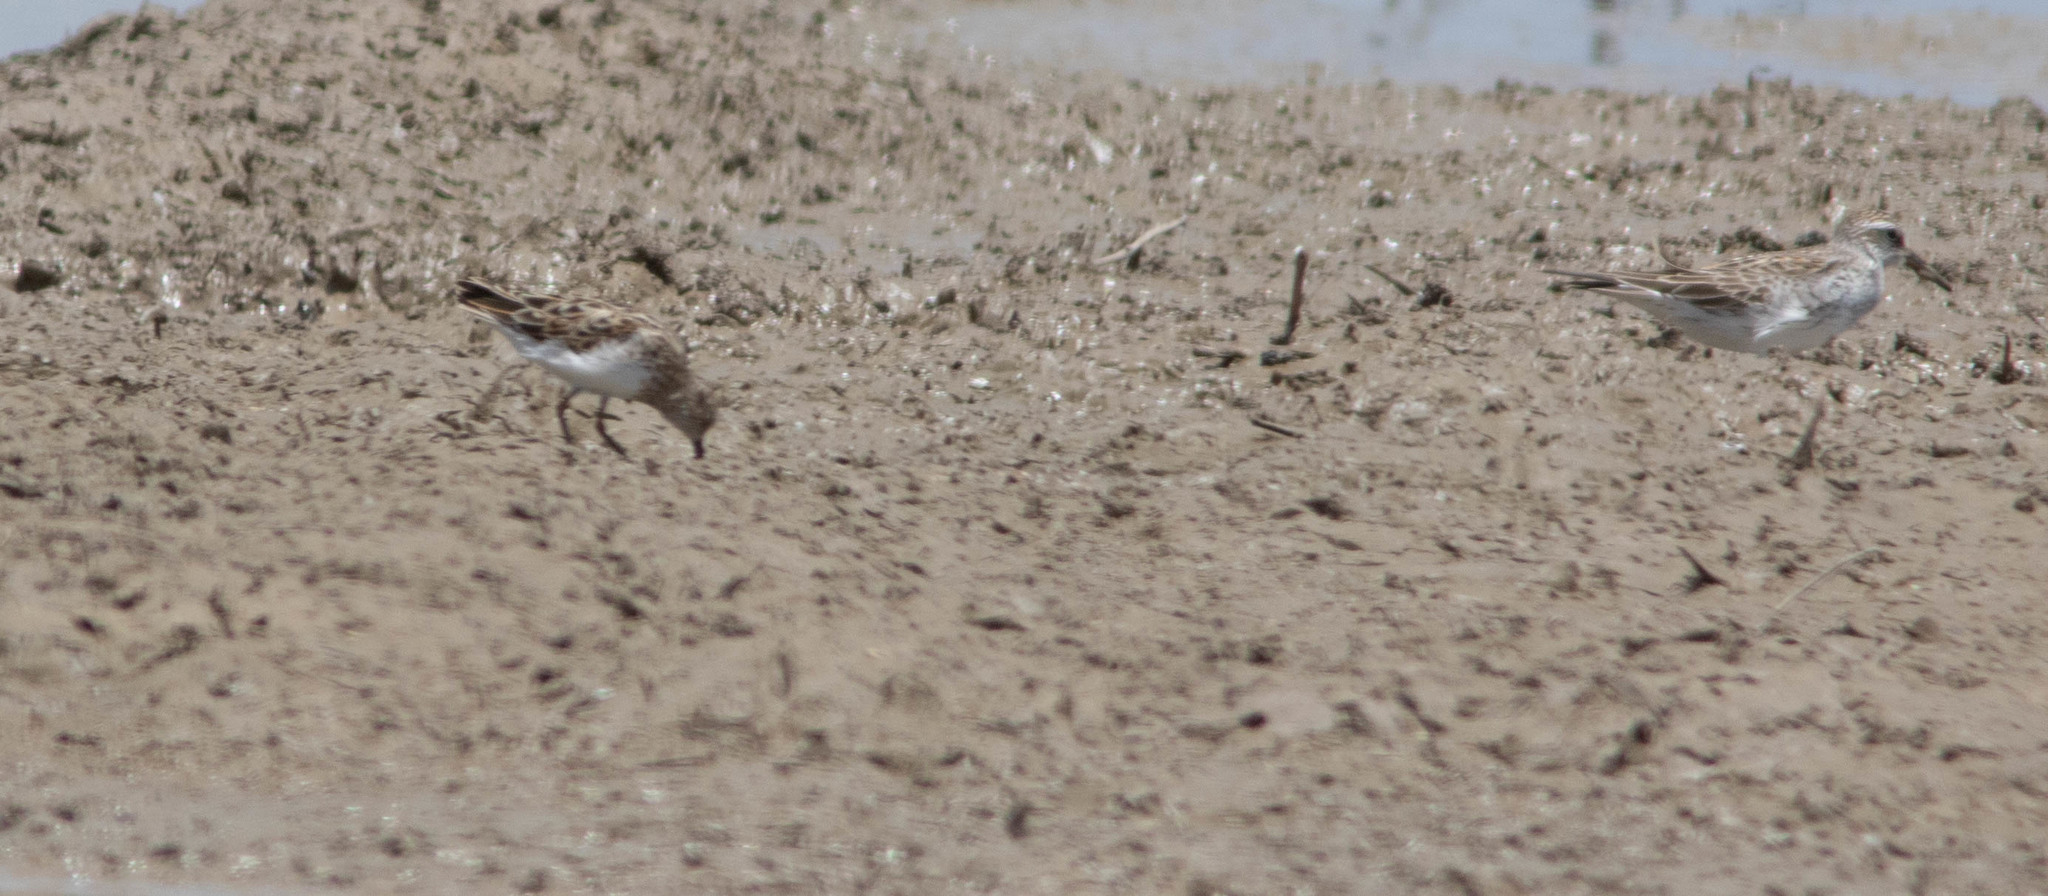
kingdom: Animalia
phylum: Chordata
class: Aves
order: Charadriiformes
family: Scolopacidae
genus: Calidris
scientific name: Calidris fuscicollis
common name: White-rumped sandpiper
